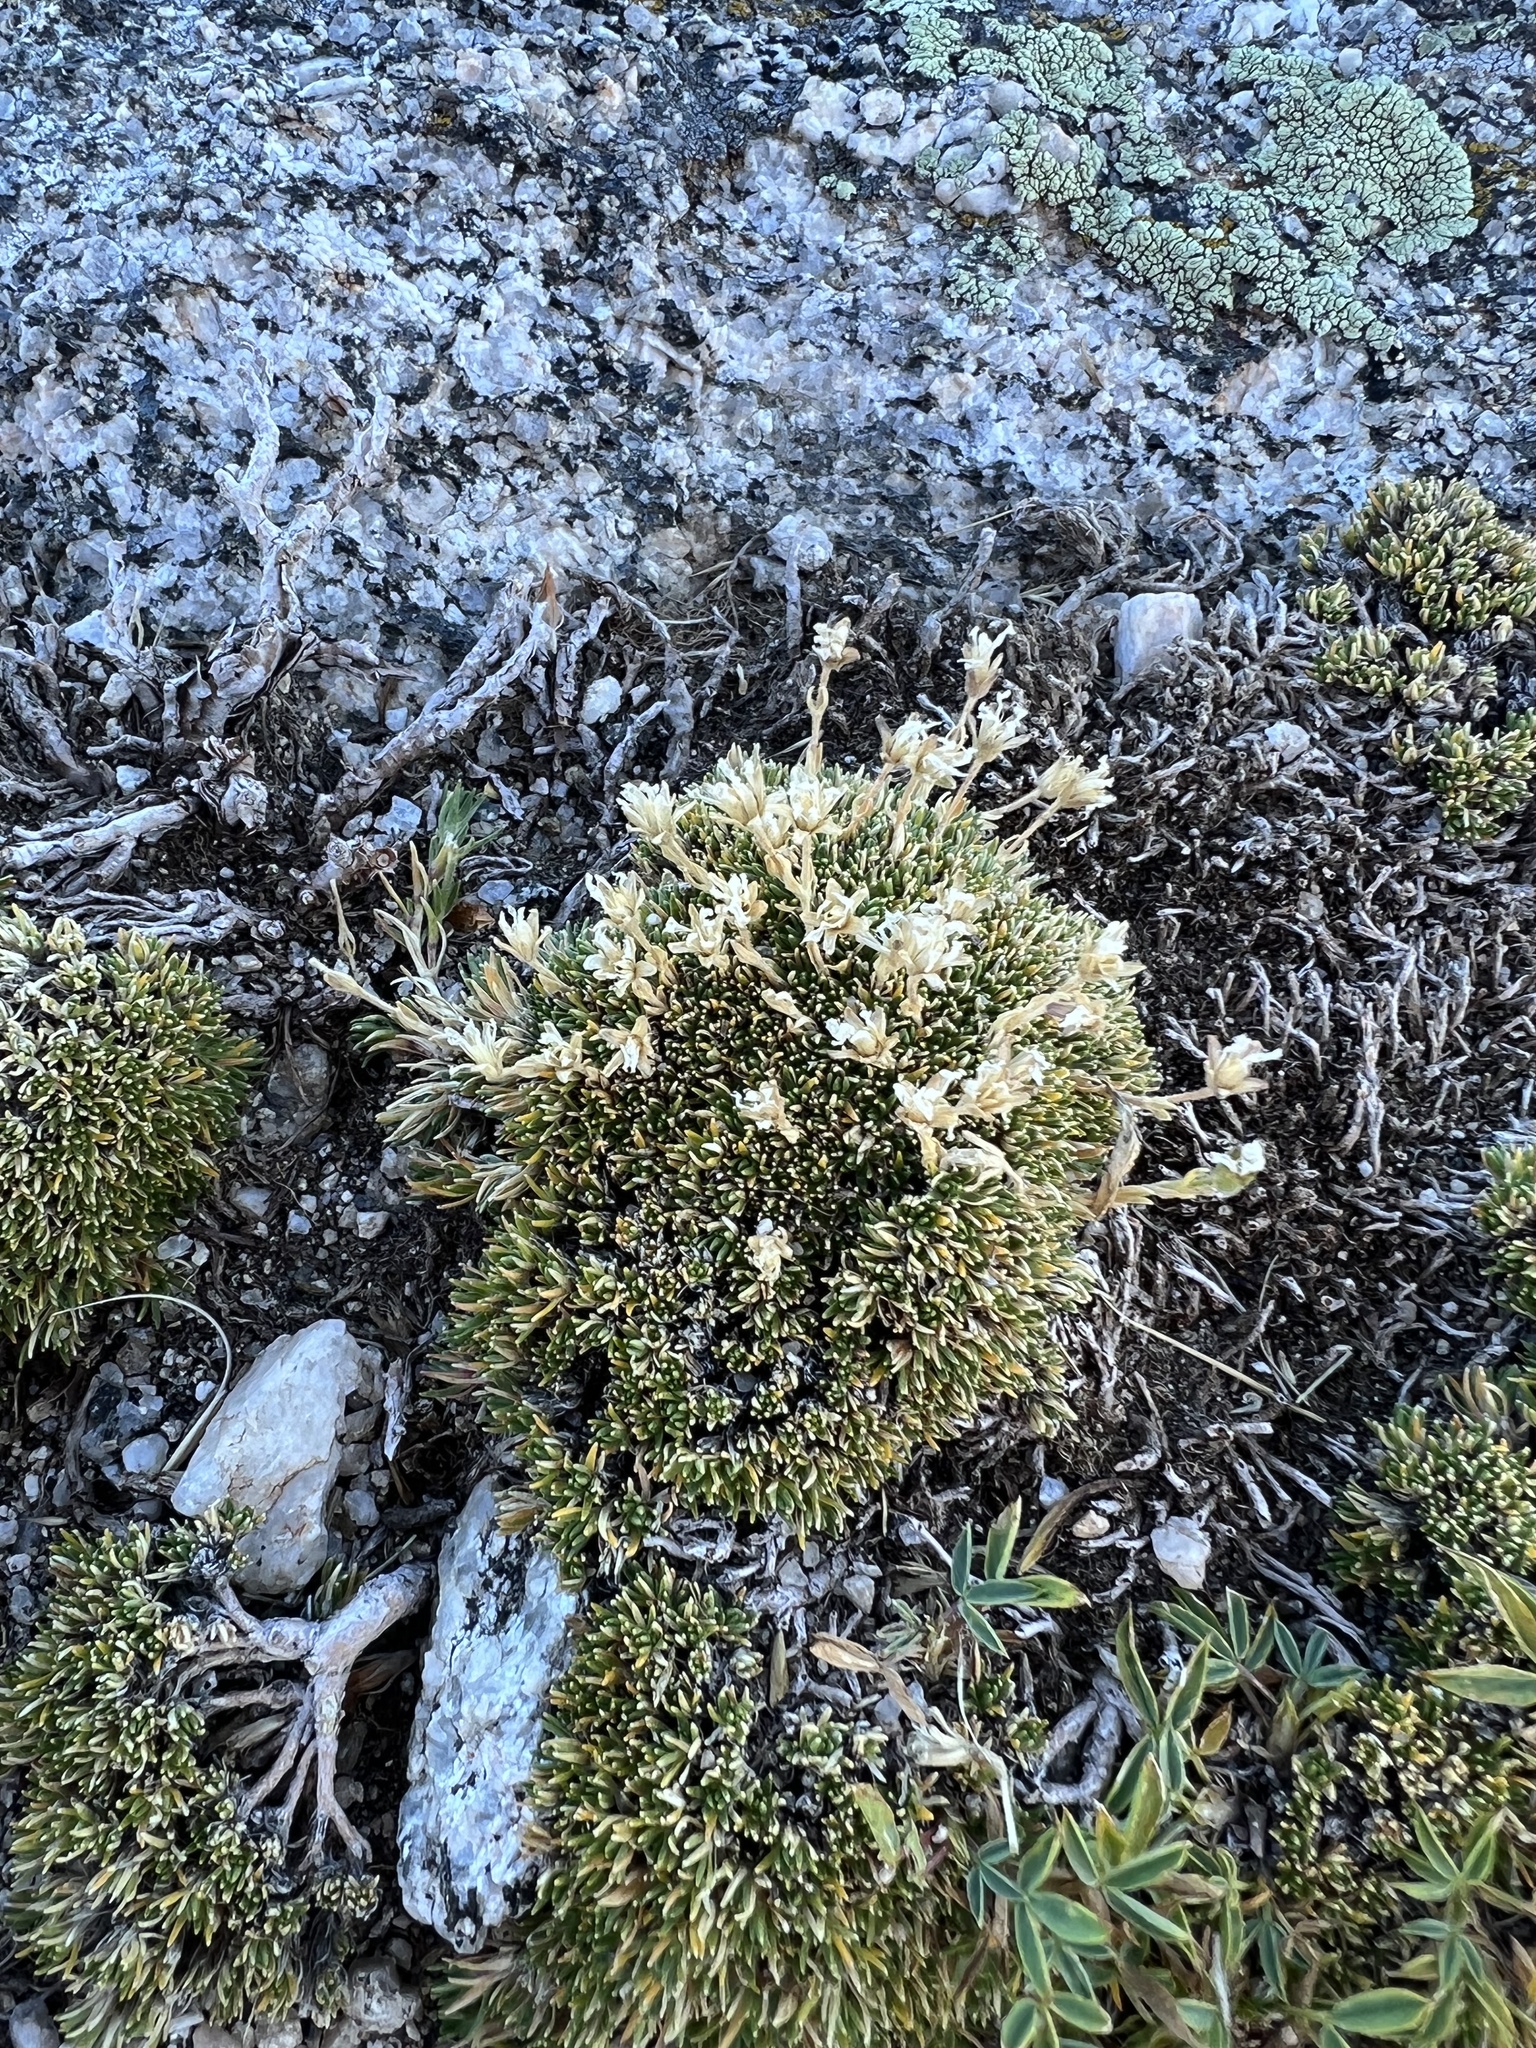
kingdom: Plantae
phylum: Tracheophyta
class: Magnoliopsida
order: Caryophyllales
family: Caryophyllaceae
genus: Cherleria
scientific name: Cherleria obtusiloba
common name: Alpine stitchwort
